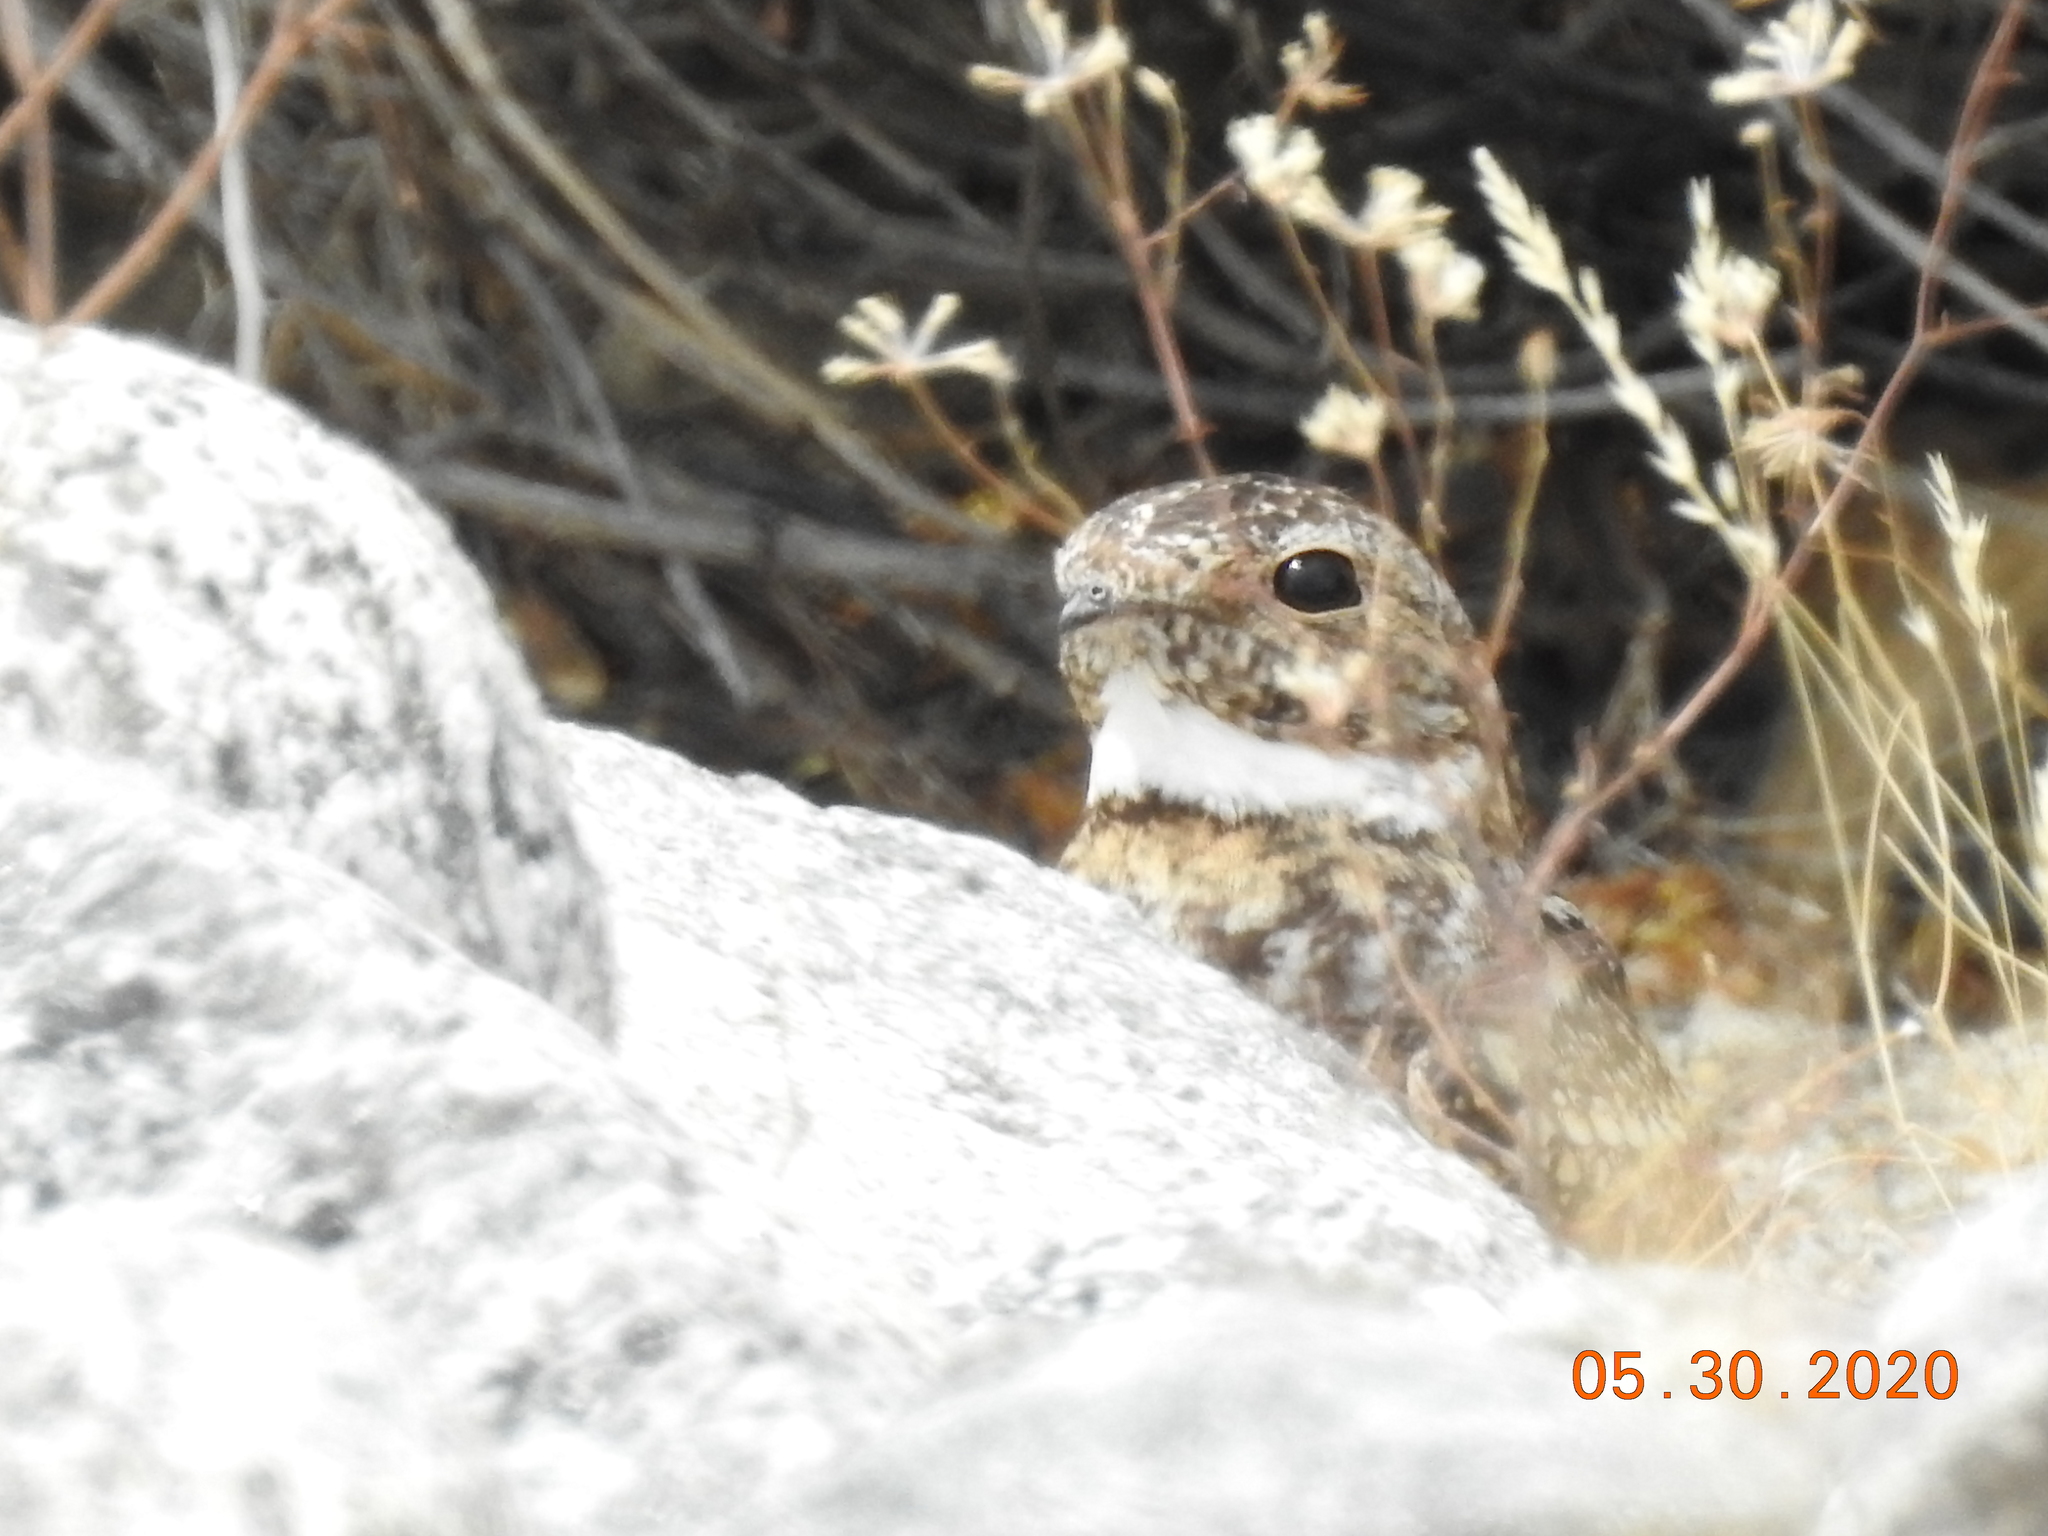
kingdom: Animalia
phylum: Chordata
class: Aves
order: Caprimulgiformes
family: Caprimulgidae
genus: Chordeiles
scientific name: Chordeiles acutipennis
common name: Lesser nighthawk
